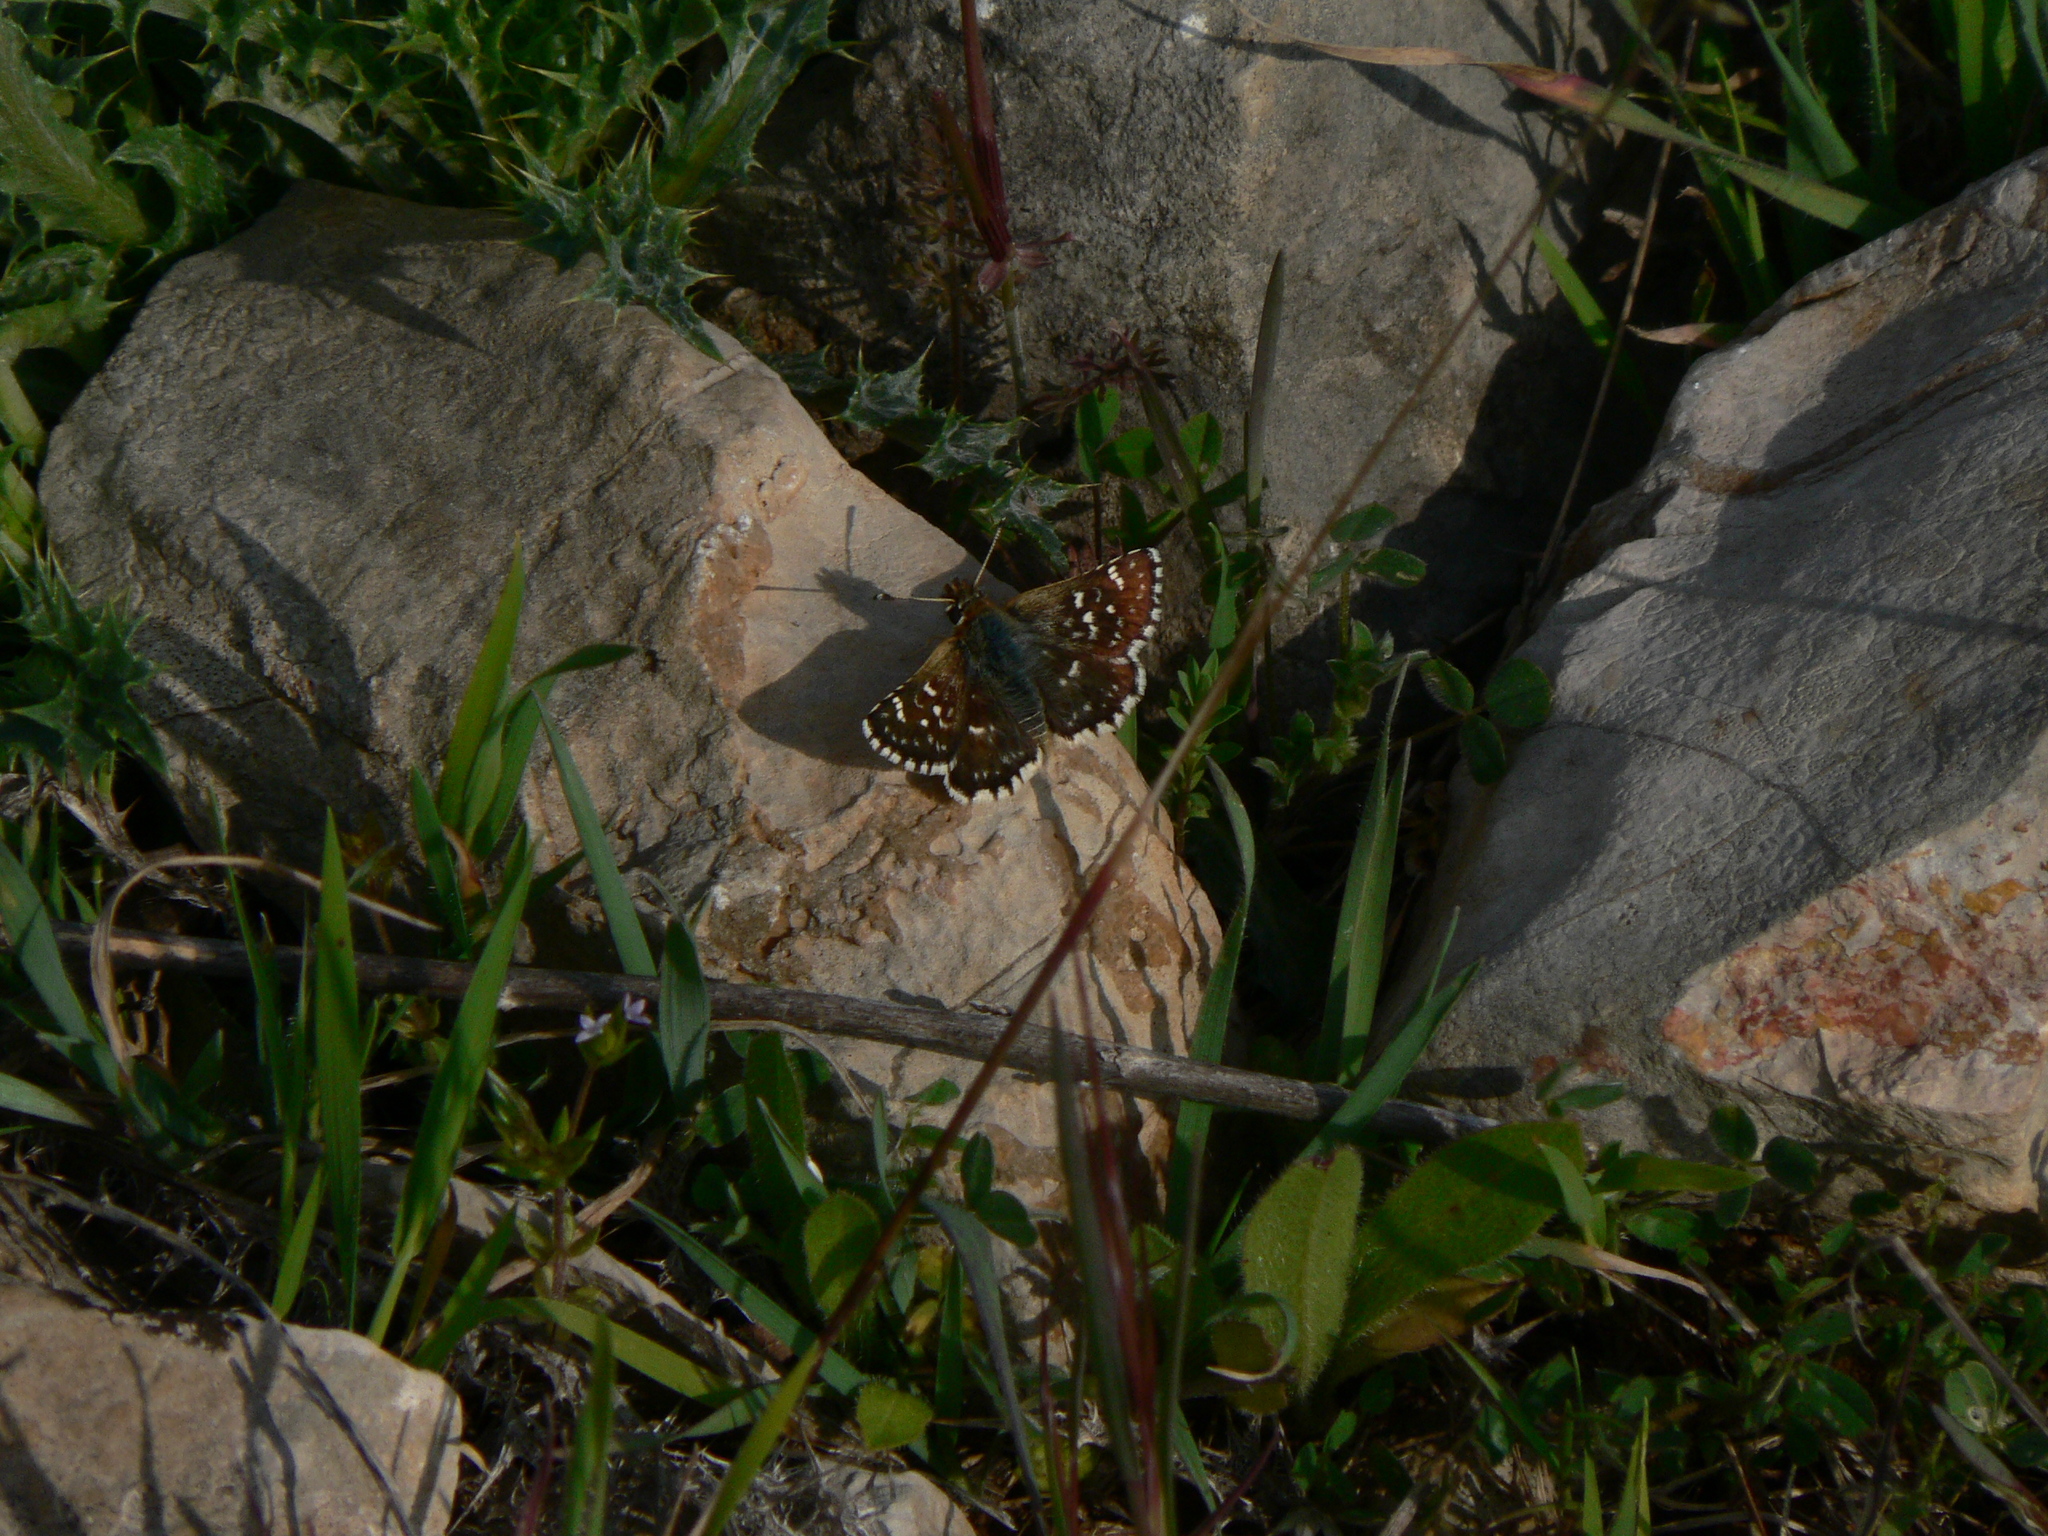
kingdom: Animalia
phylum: Arthropoda
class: Insecta
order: Lepidoptera
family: Hesperiidae
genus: Spialia
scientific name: Spialia sertorius
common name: Red underwing skipper
